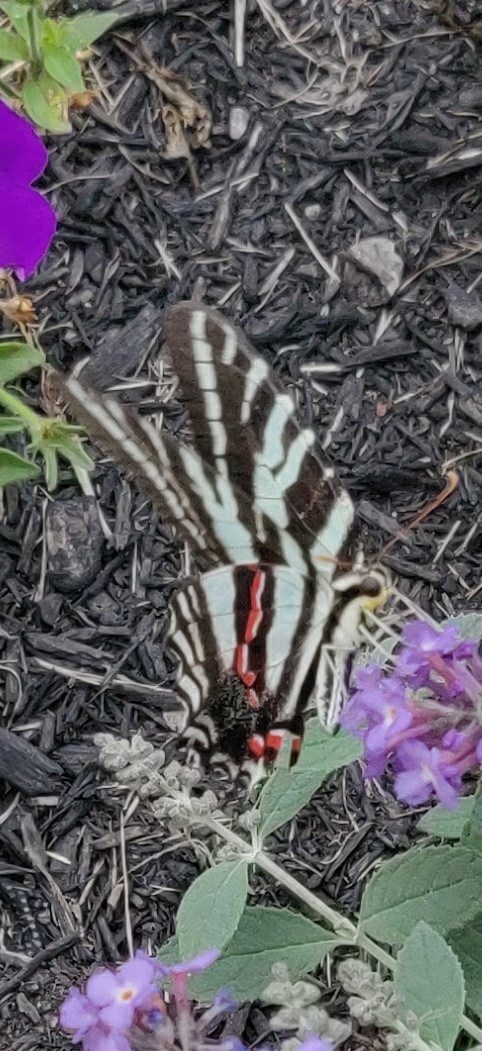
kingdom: Animalia
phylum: Arthropoda
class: Insecta
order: Lepidoptera
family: Papilionidae
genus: Protographium
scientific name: Protographium marcellus
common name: Zebra swallowtail
